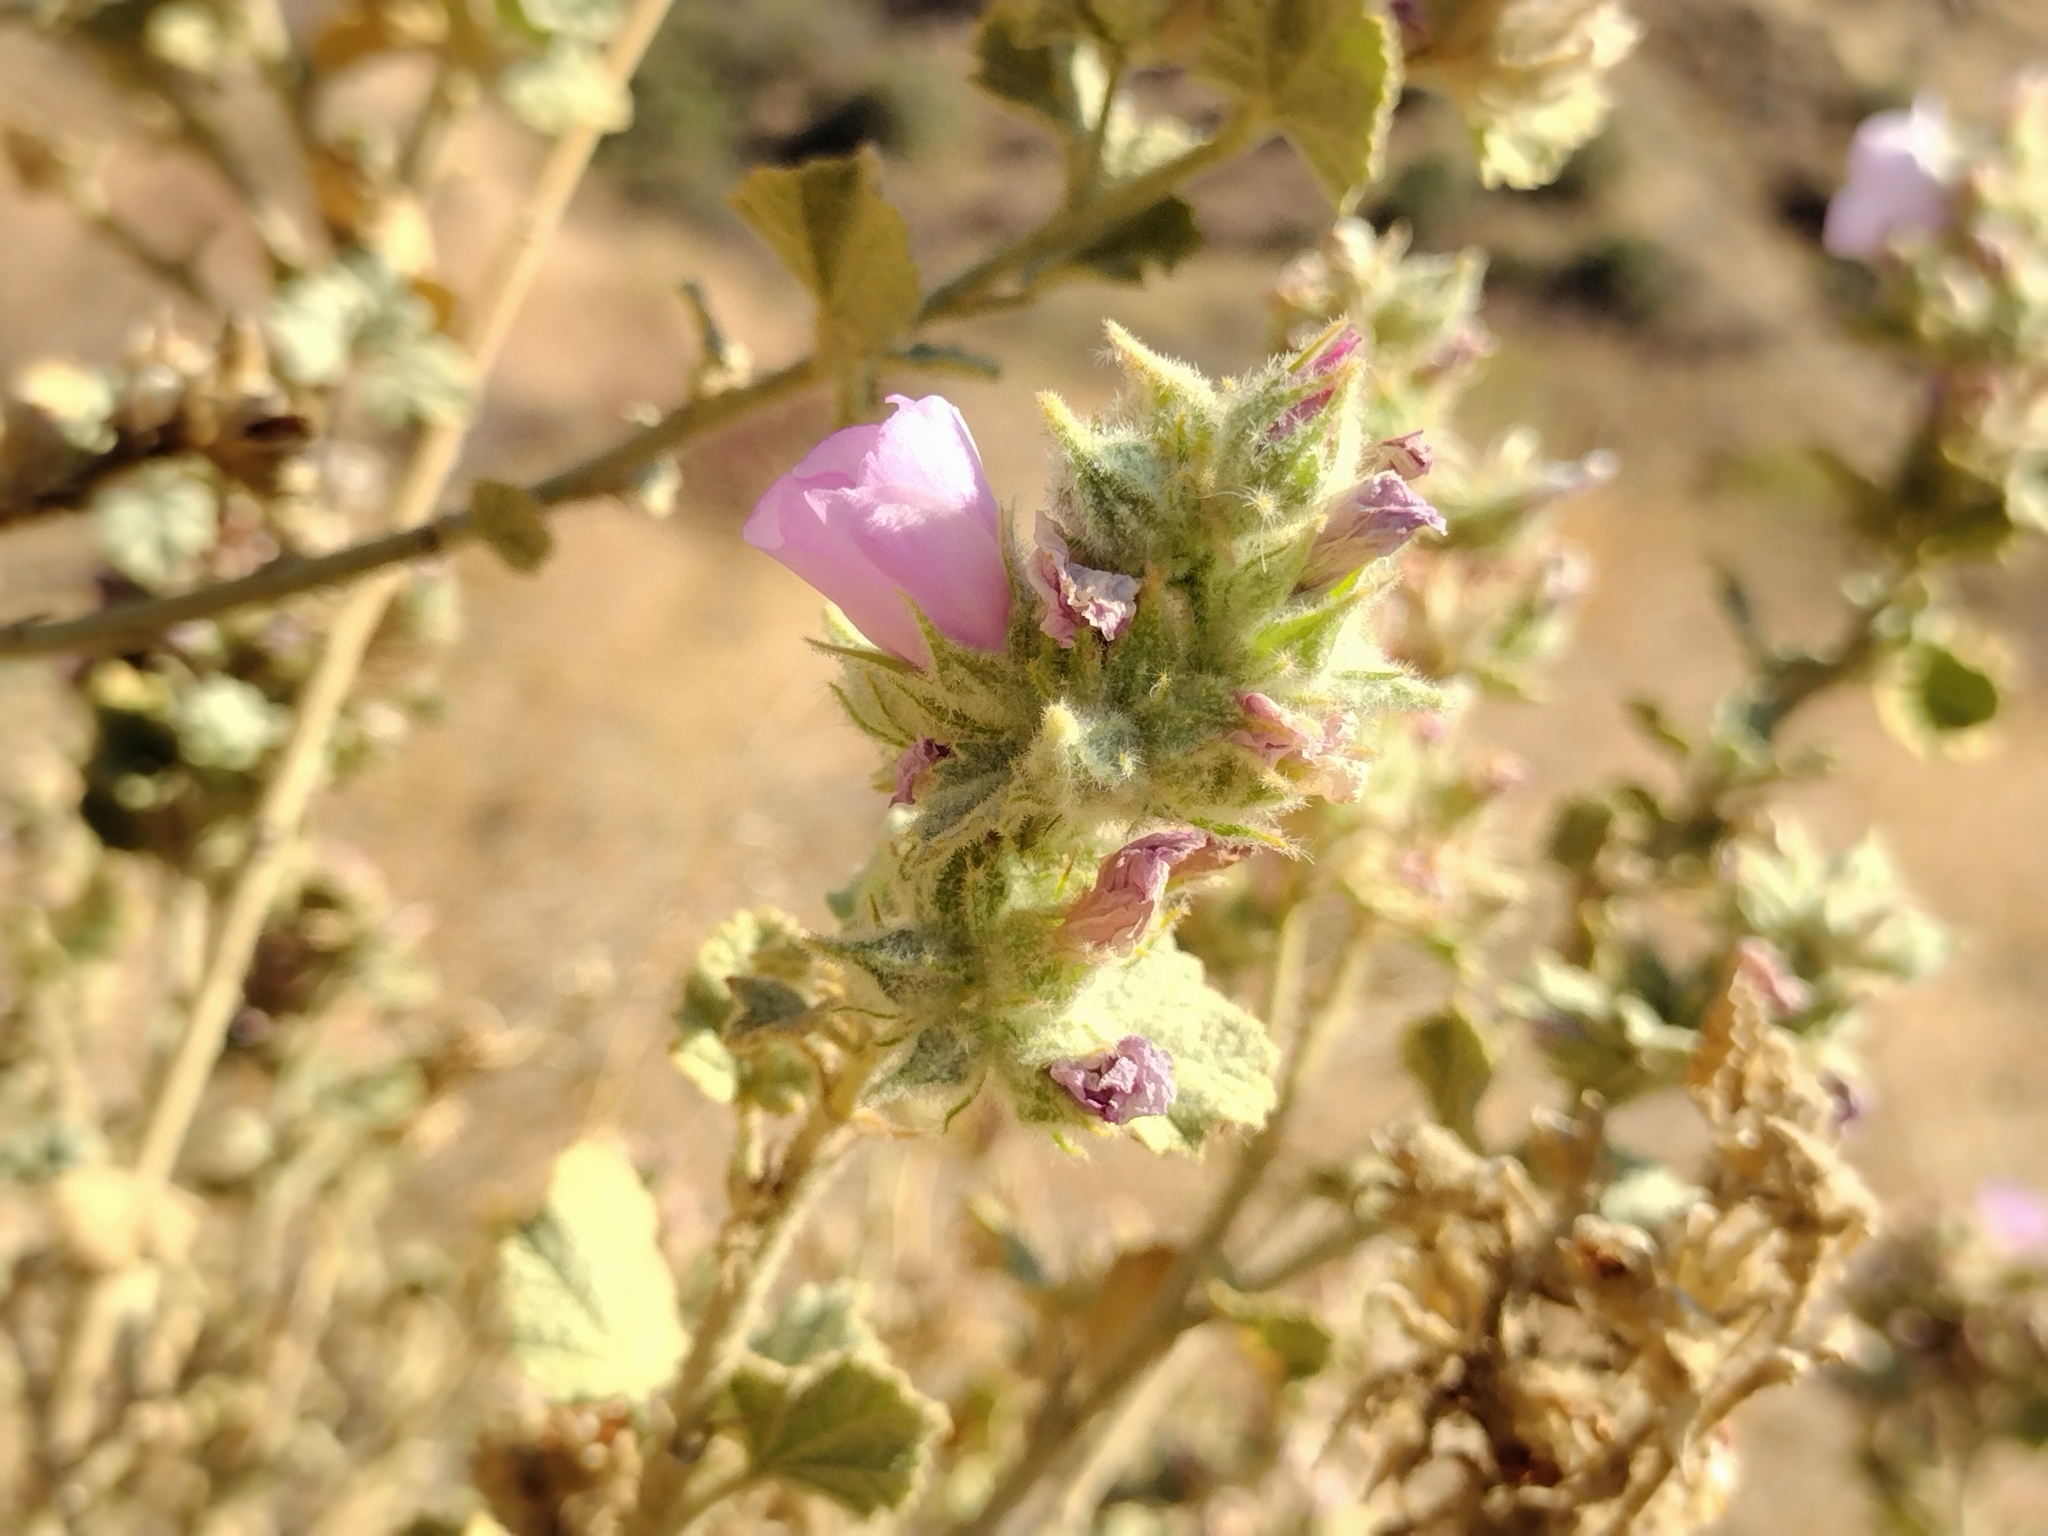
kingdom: Plantae
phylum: Tracheophyta
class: Magnoliopsida
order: Malvales
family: Malvaceae
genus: Malacothamnus
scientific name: Malacothamnus marrubioides
